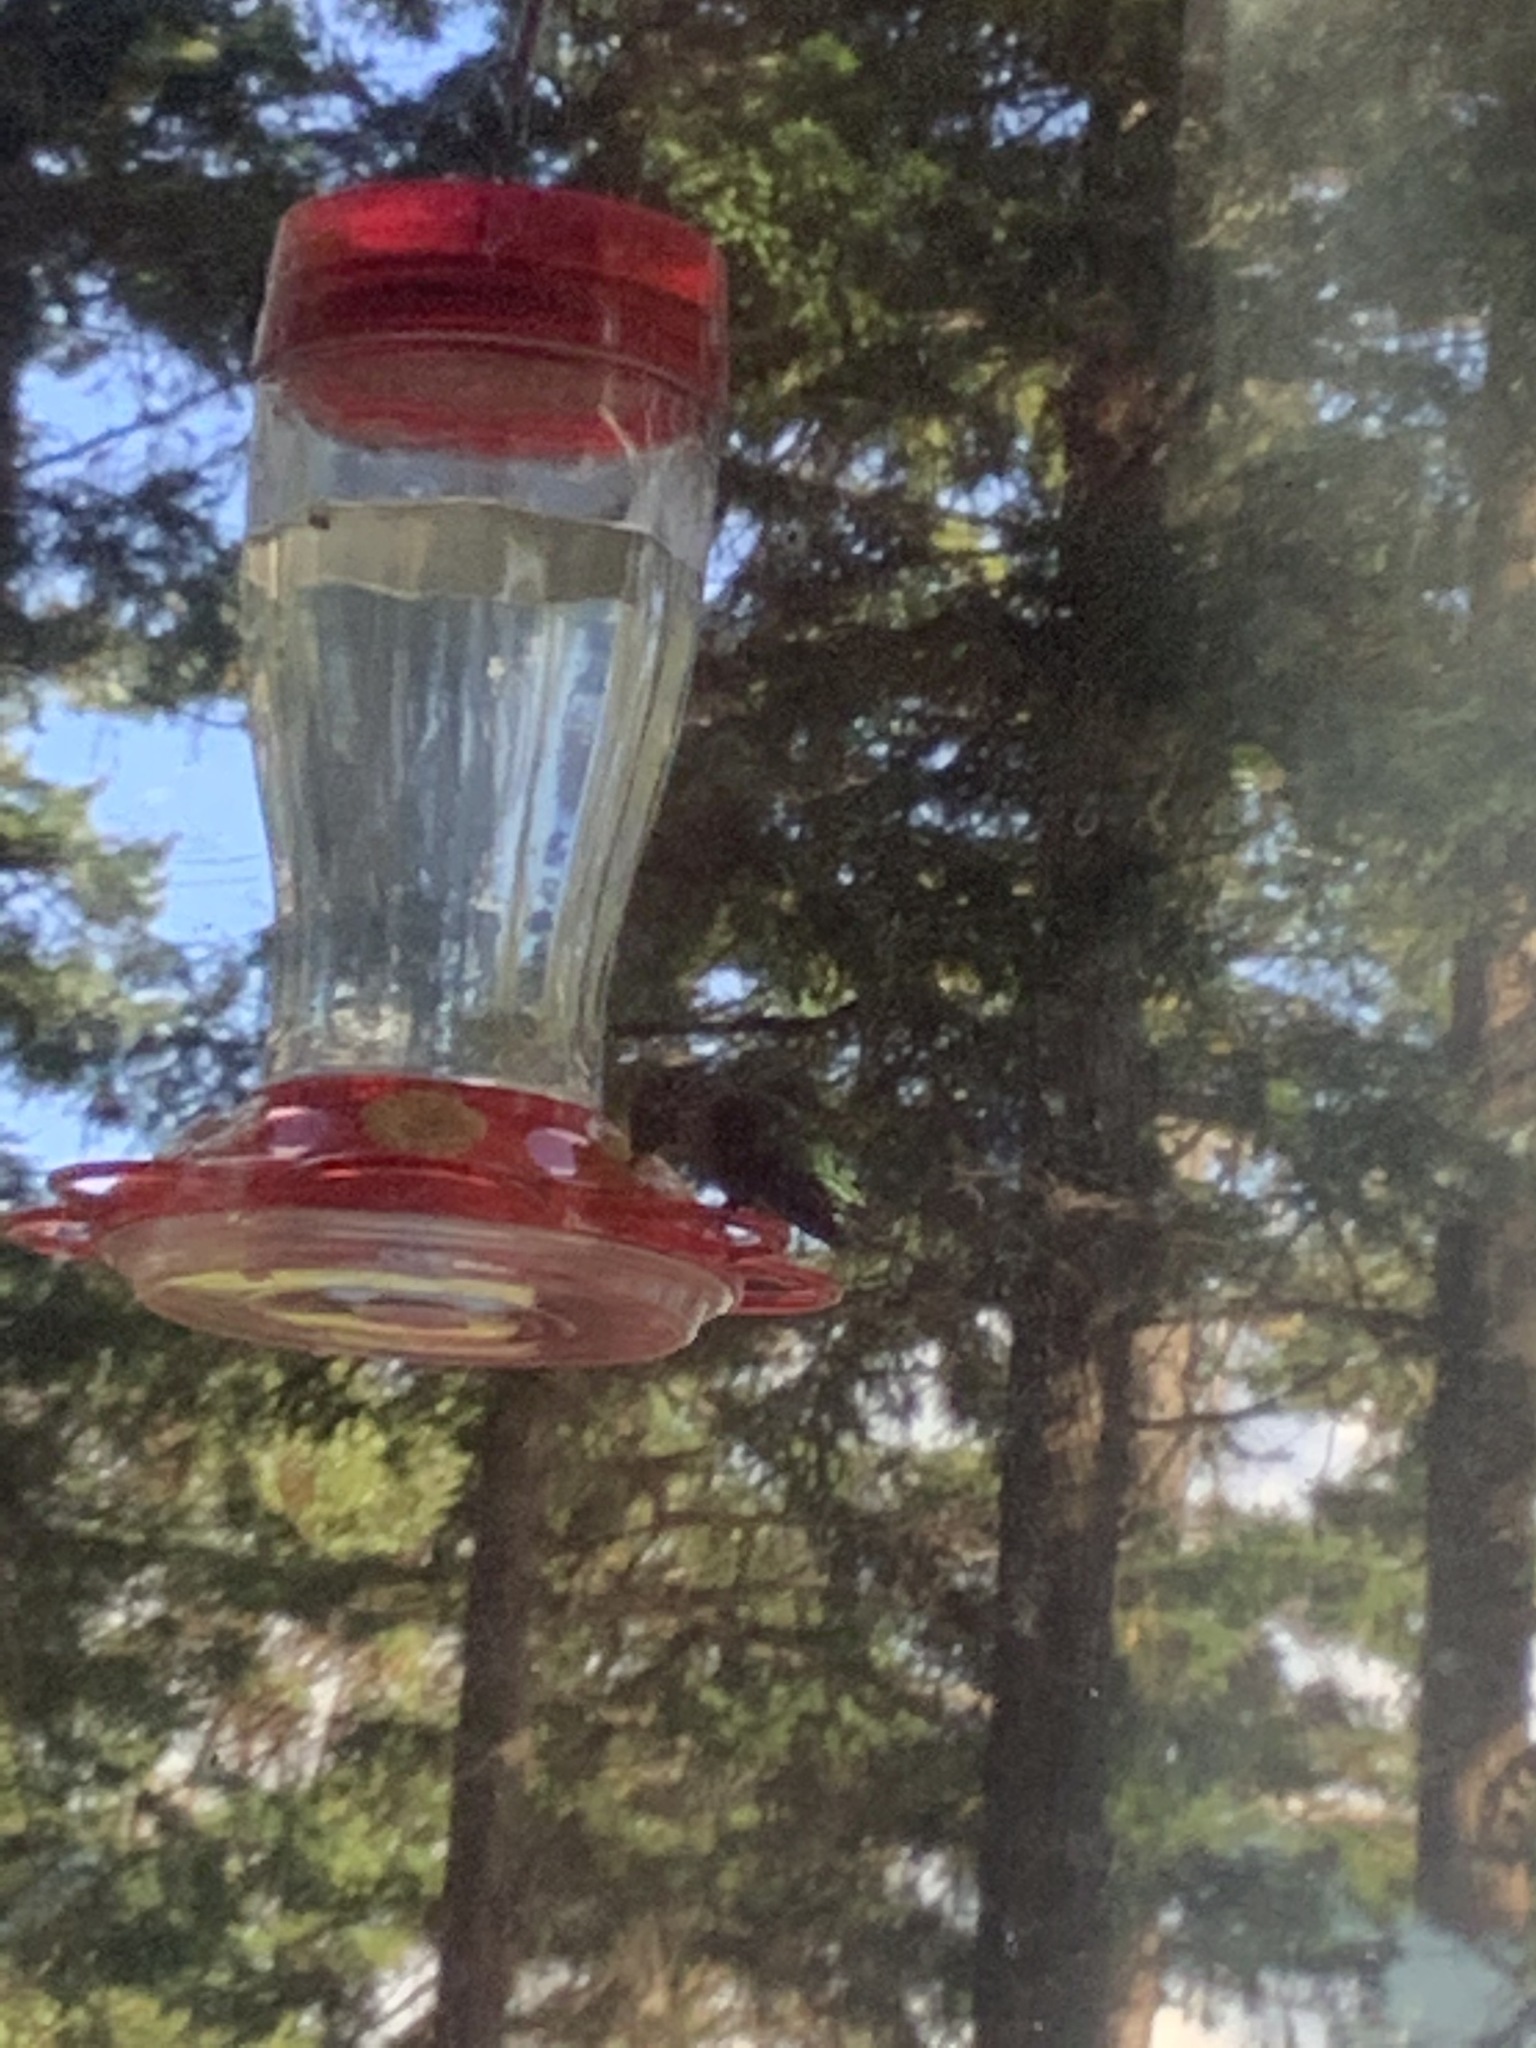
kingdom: Animalia
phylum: Chordata
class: Aves
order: Apodiformes
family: Trochilidae
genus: Calypte
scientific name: Calypte anna
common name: Anna's hummingbird
